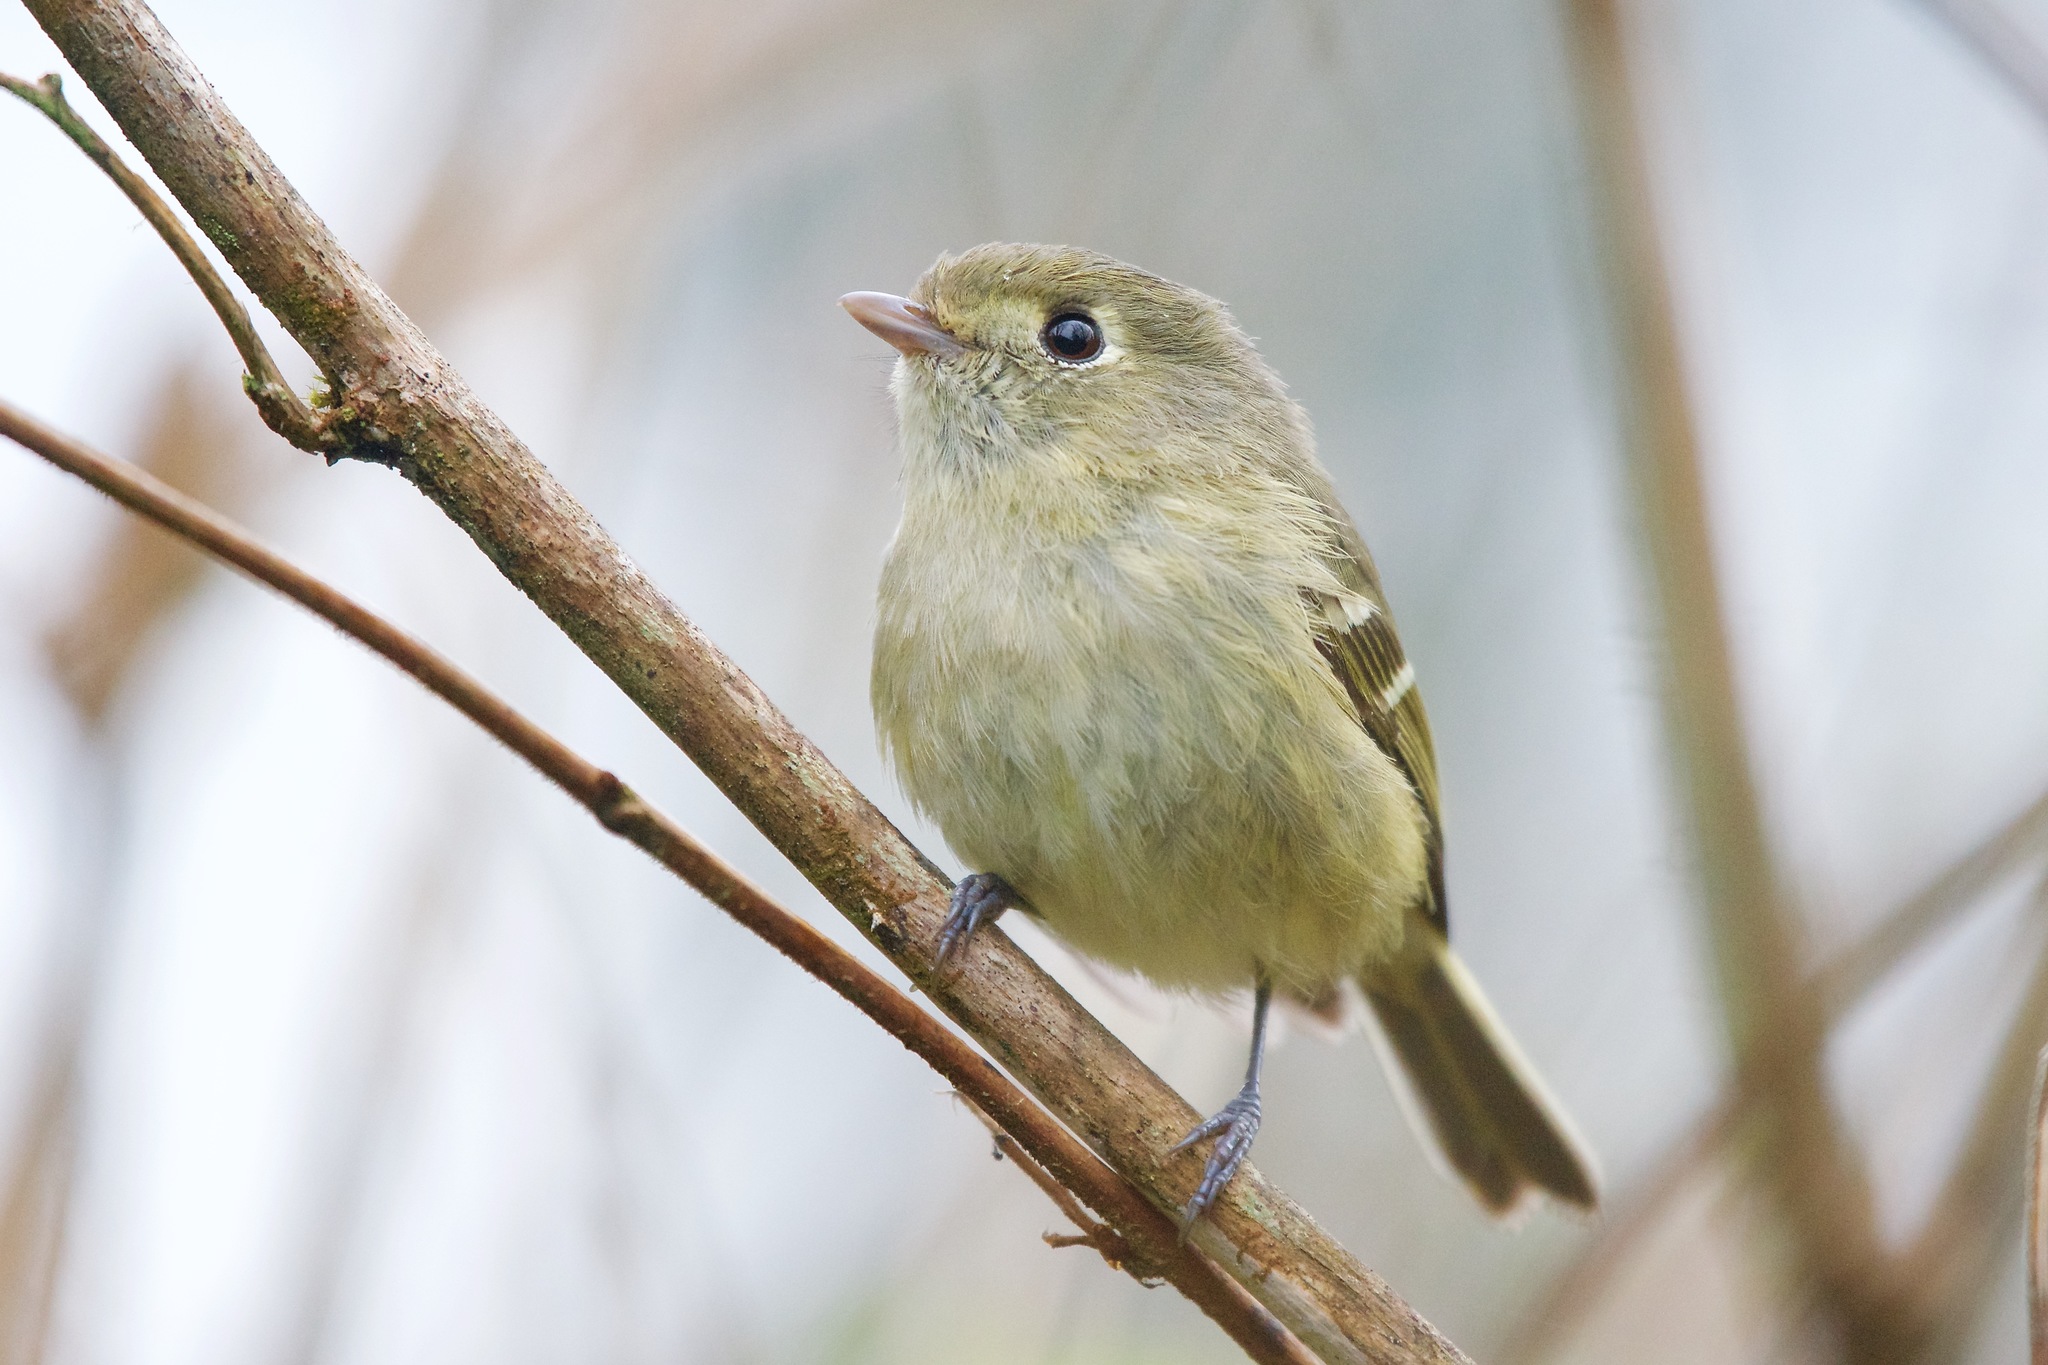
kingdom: Animalia
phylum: Chordata
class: Aves
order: Passeriformes
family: Vireonidae
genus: Vireo
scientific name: Vireo huttoni
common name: Hutton's vireo
